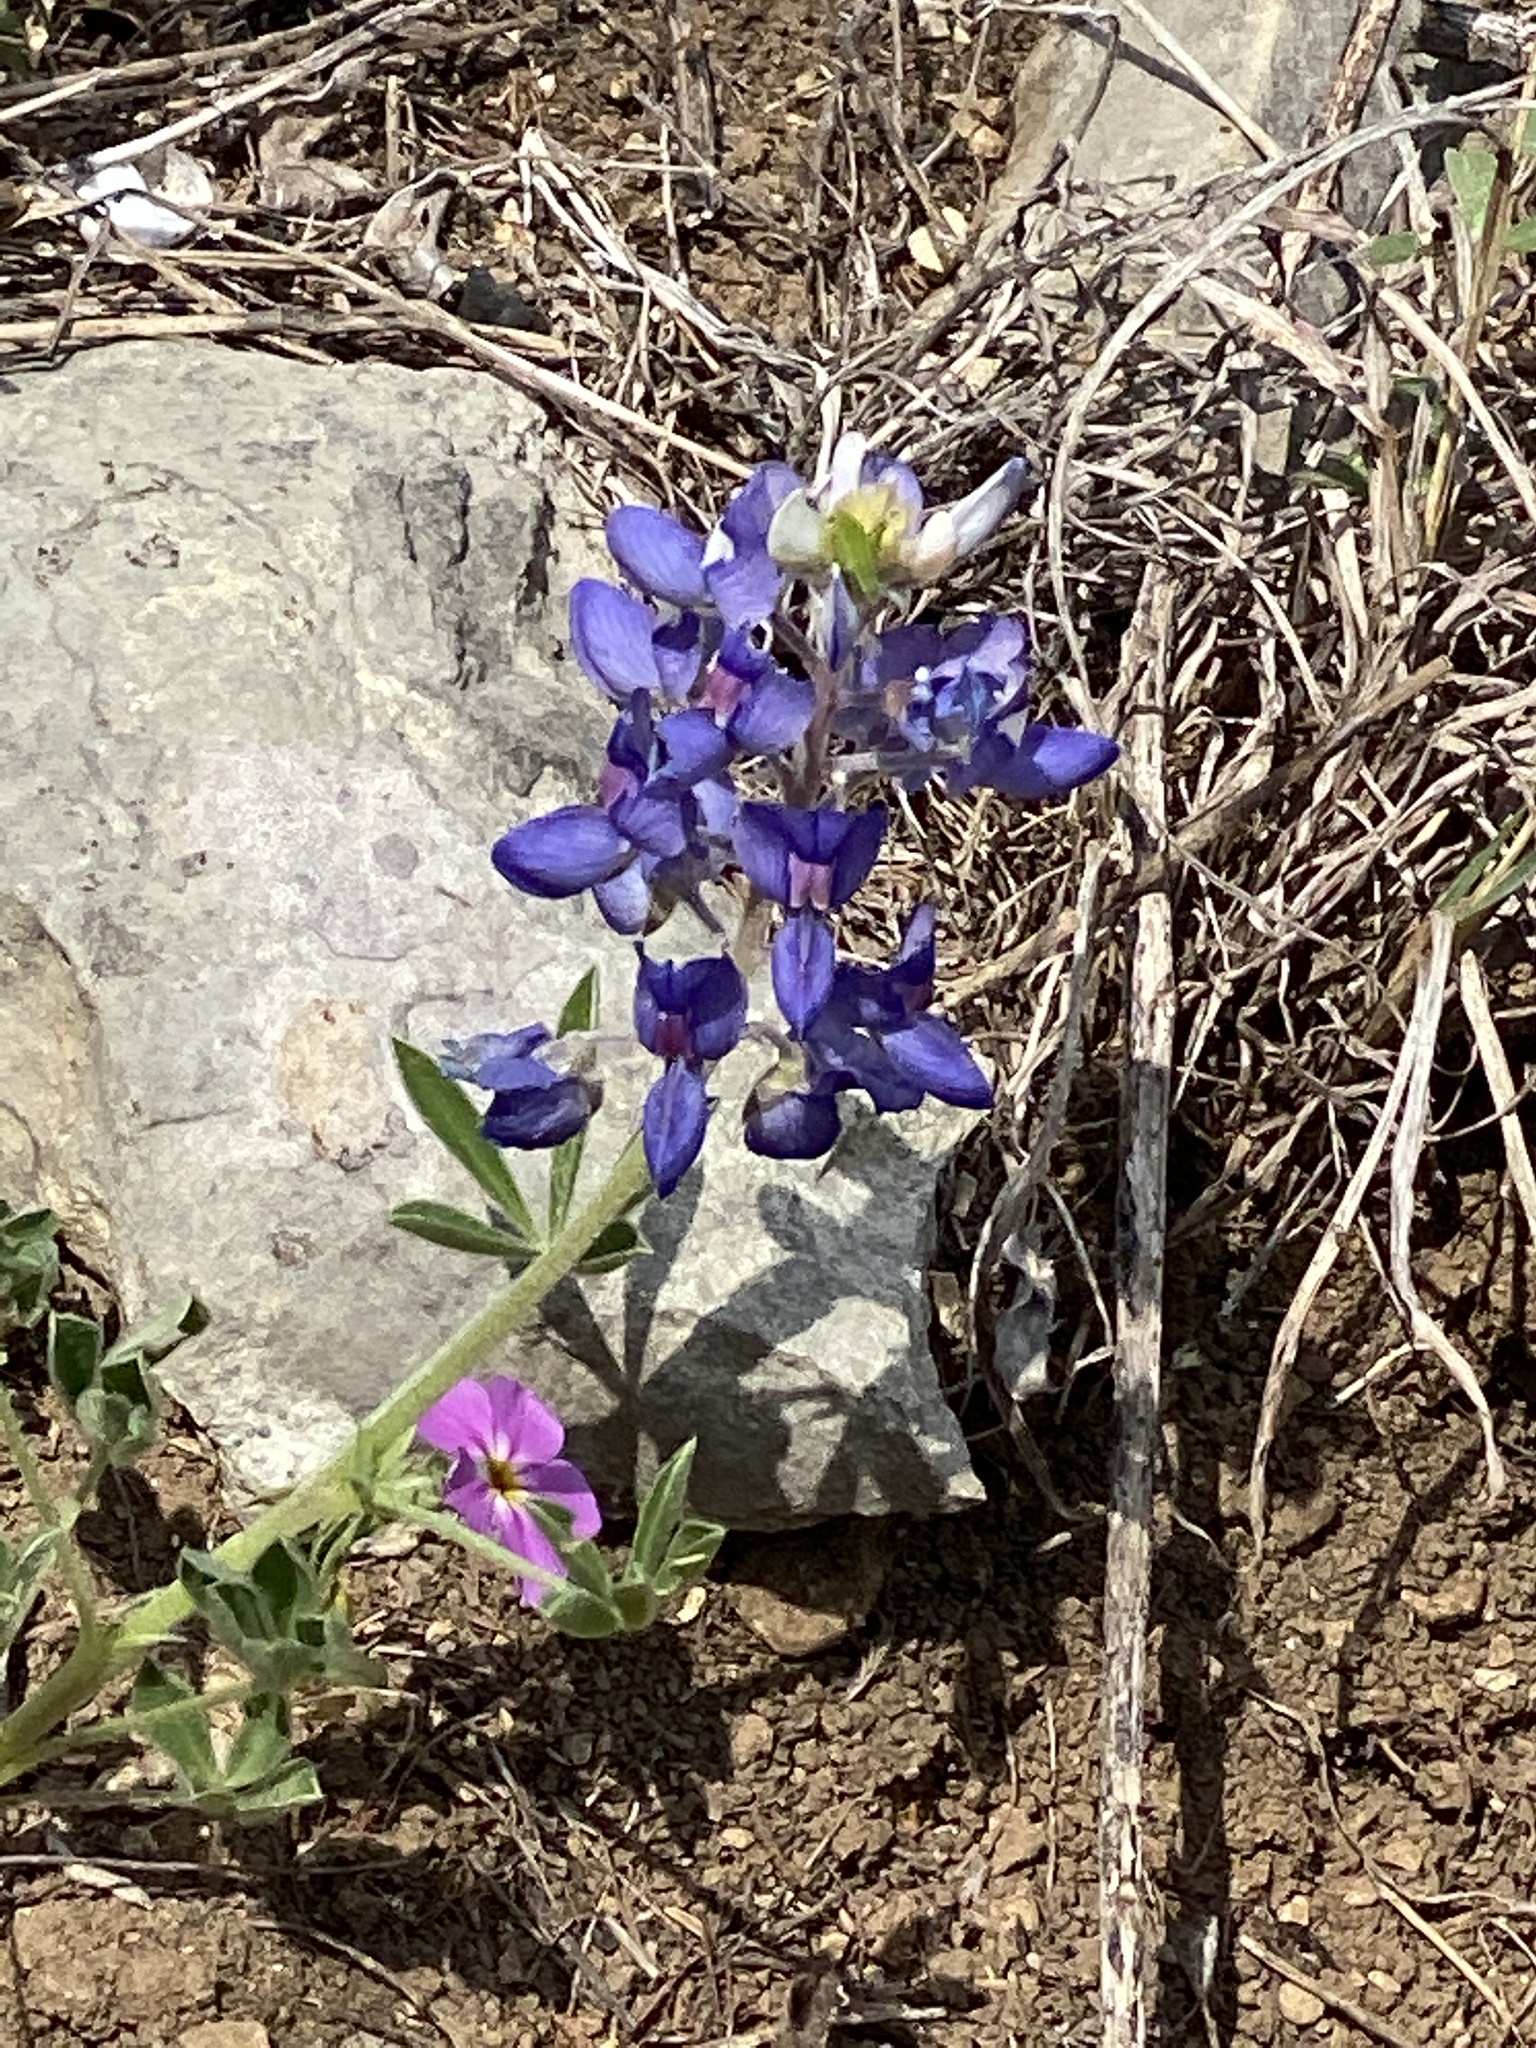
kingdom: Plantae
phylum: Tracheophyta
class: Magnoliopsida
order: Fabales
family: Fabaceae
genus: Lupinus
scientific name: Lupinus texensis
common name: Texas bluebonnet
